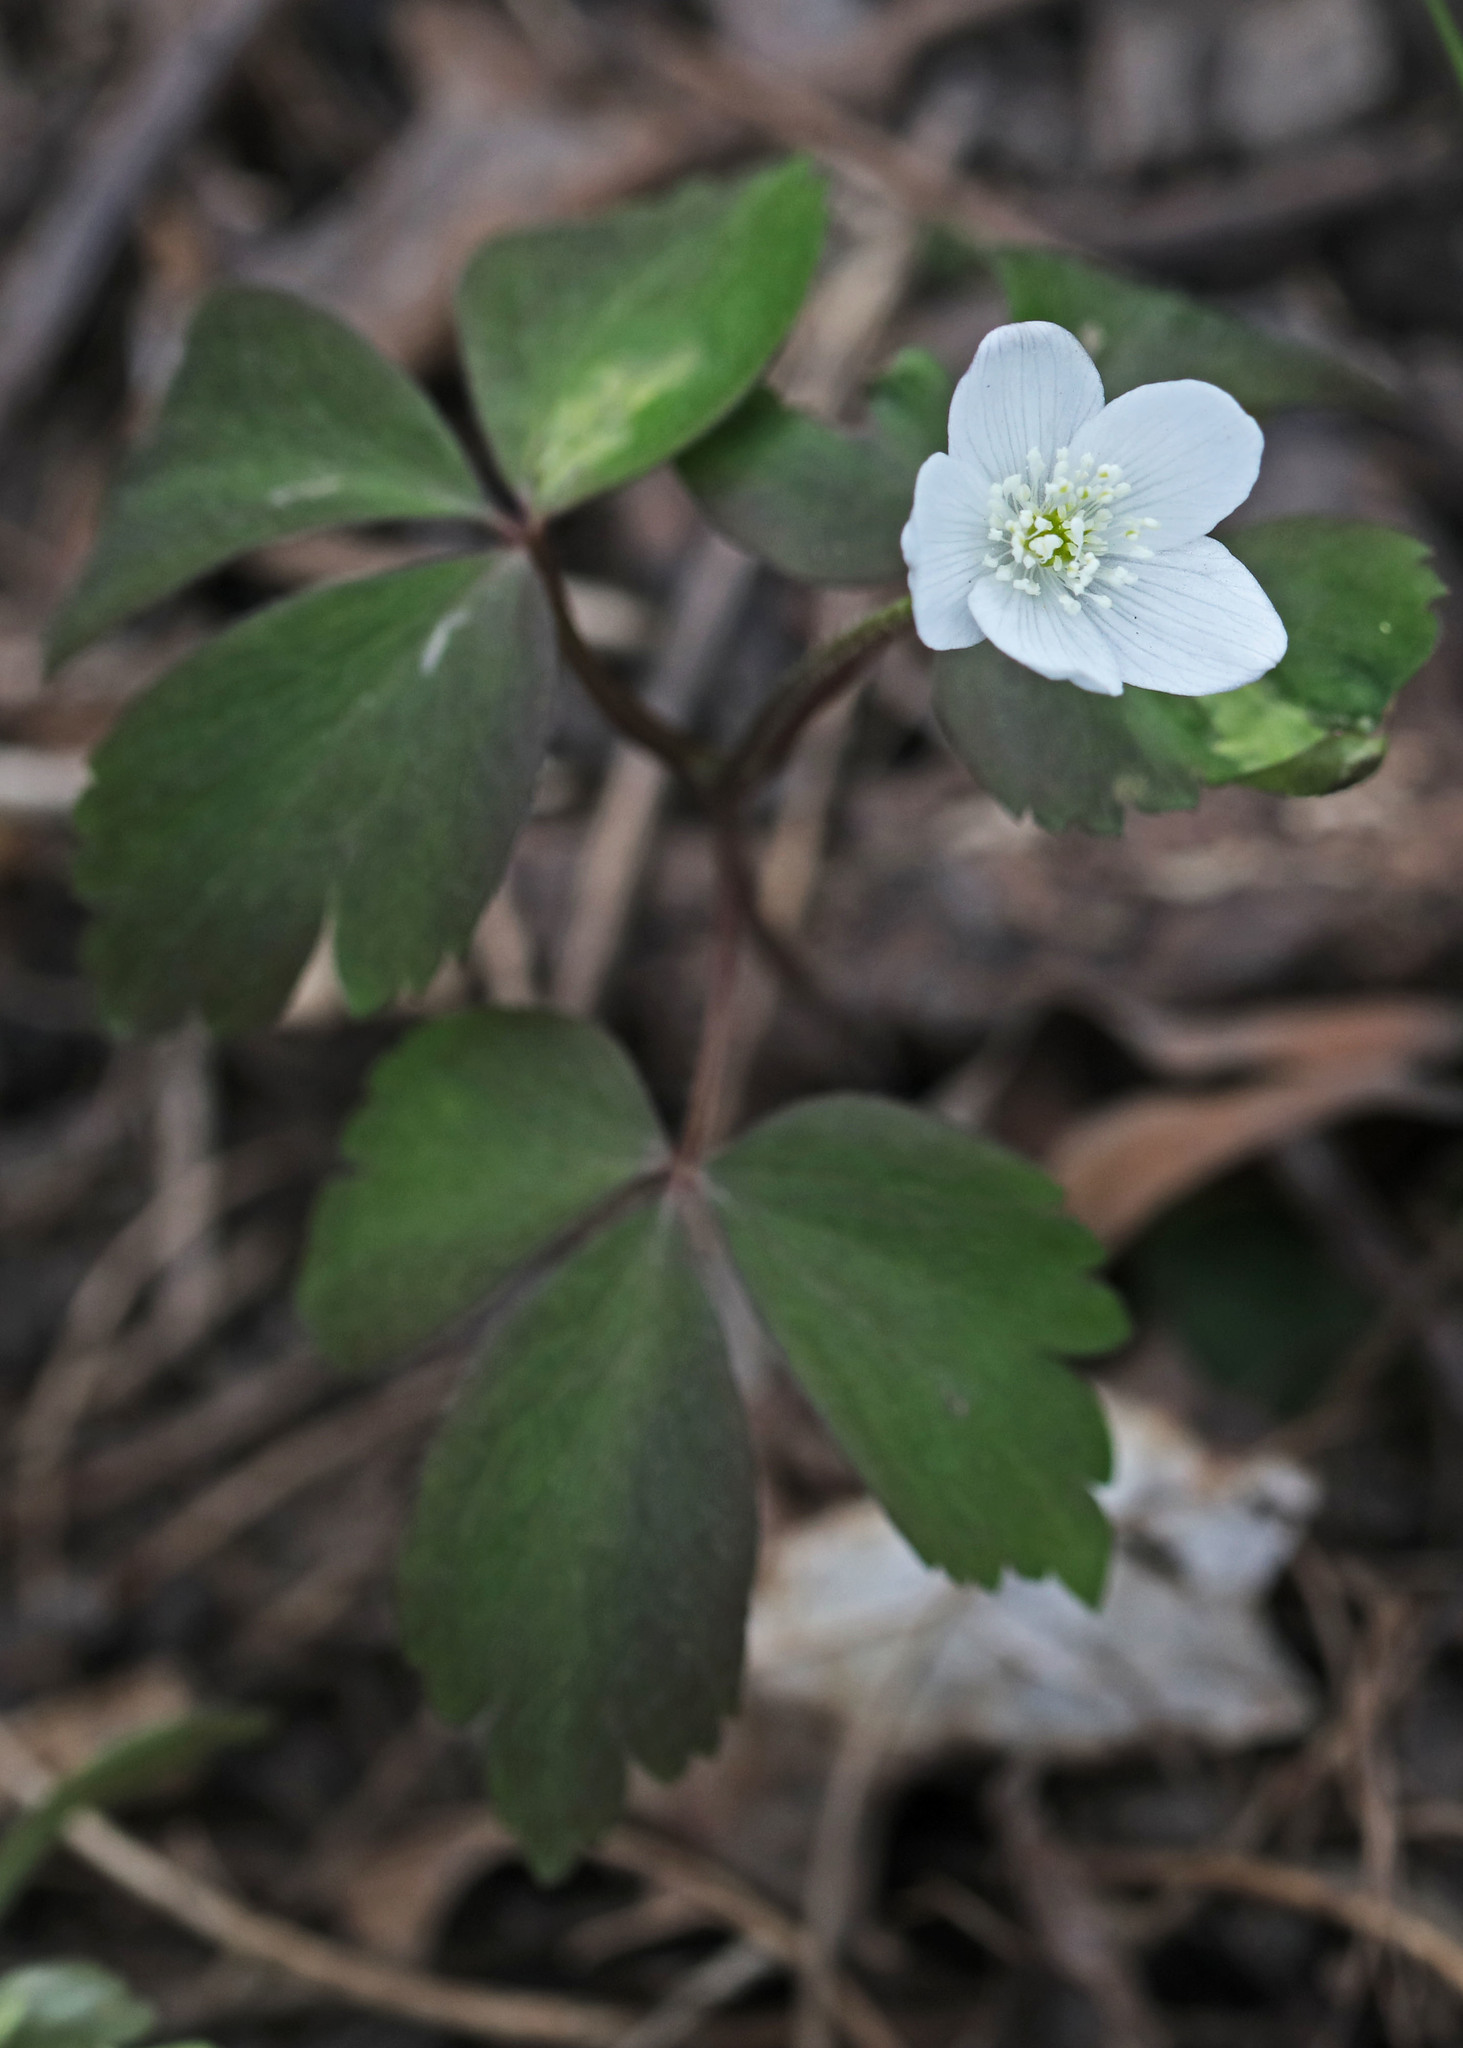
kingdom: Plantae
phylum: Tracheophyta
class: Magnoliopsida
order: Ranunculales
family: Ranunculaceae
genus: Anemone
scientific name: Anemone quinquefolia
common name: Wood anemone
